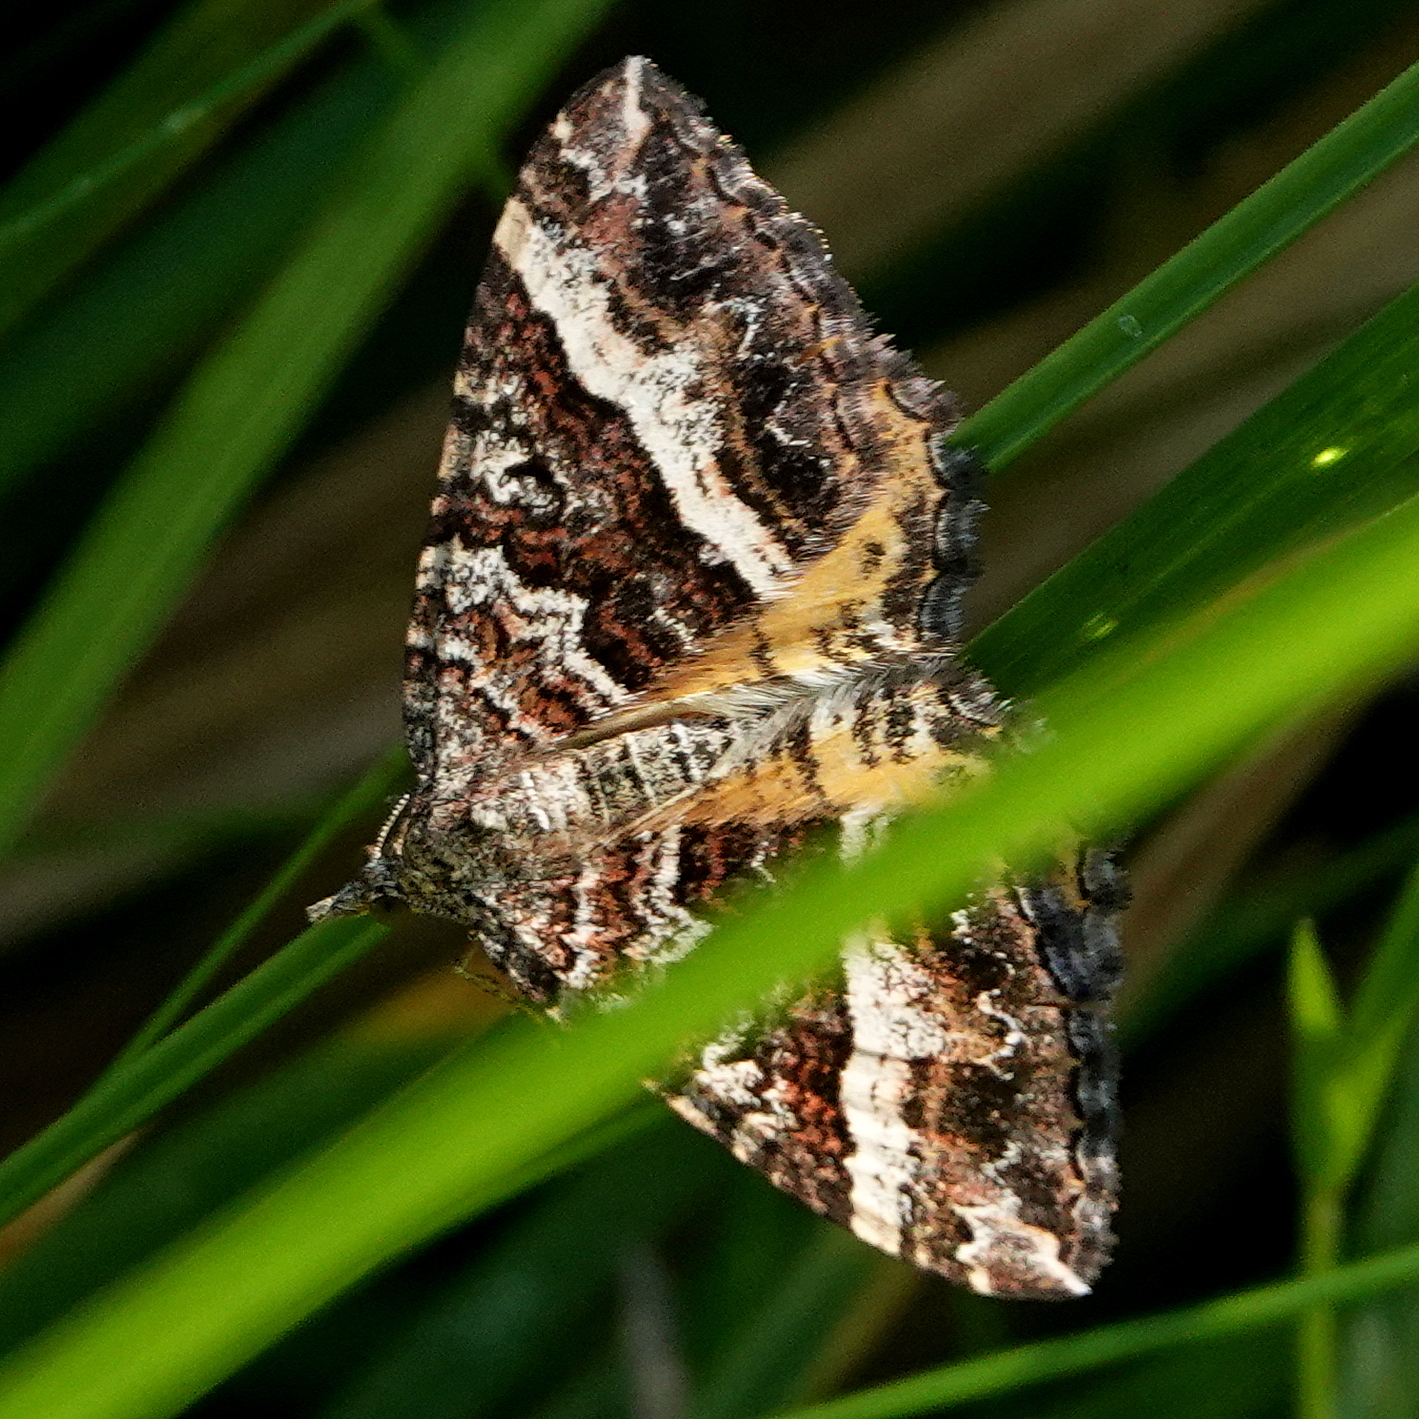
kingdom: Animalia
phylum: Arthropoda
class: Insecta
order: Lepidoptera
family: Geometridae
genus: Chrysolarentia
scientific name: Chrysolarentia vicissata
